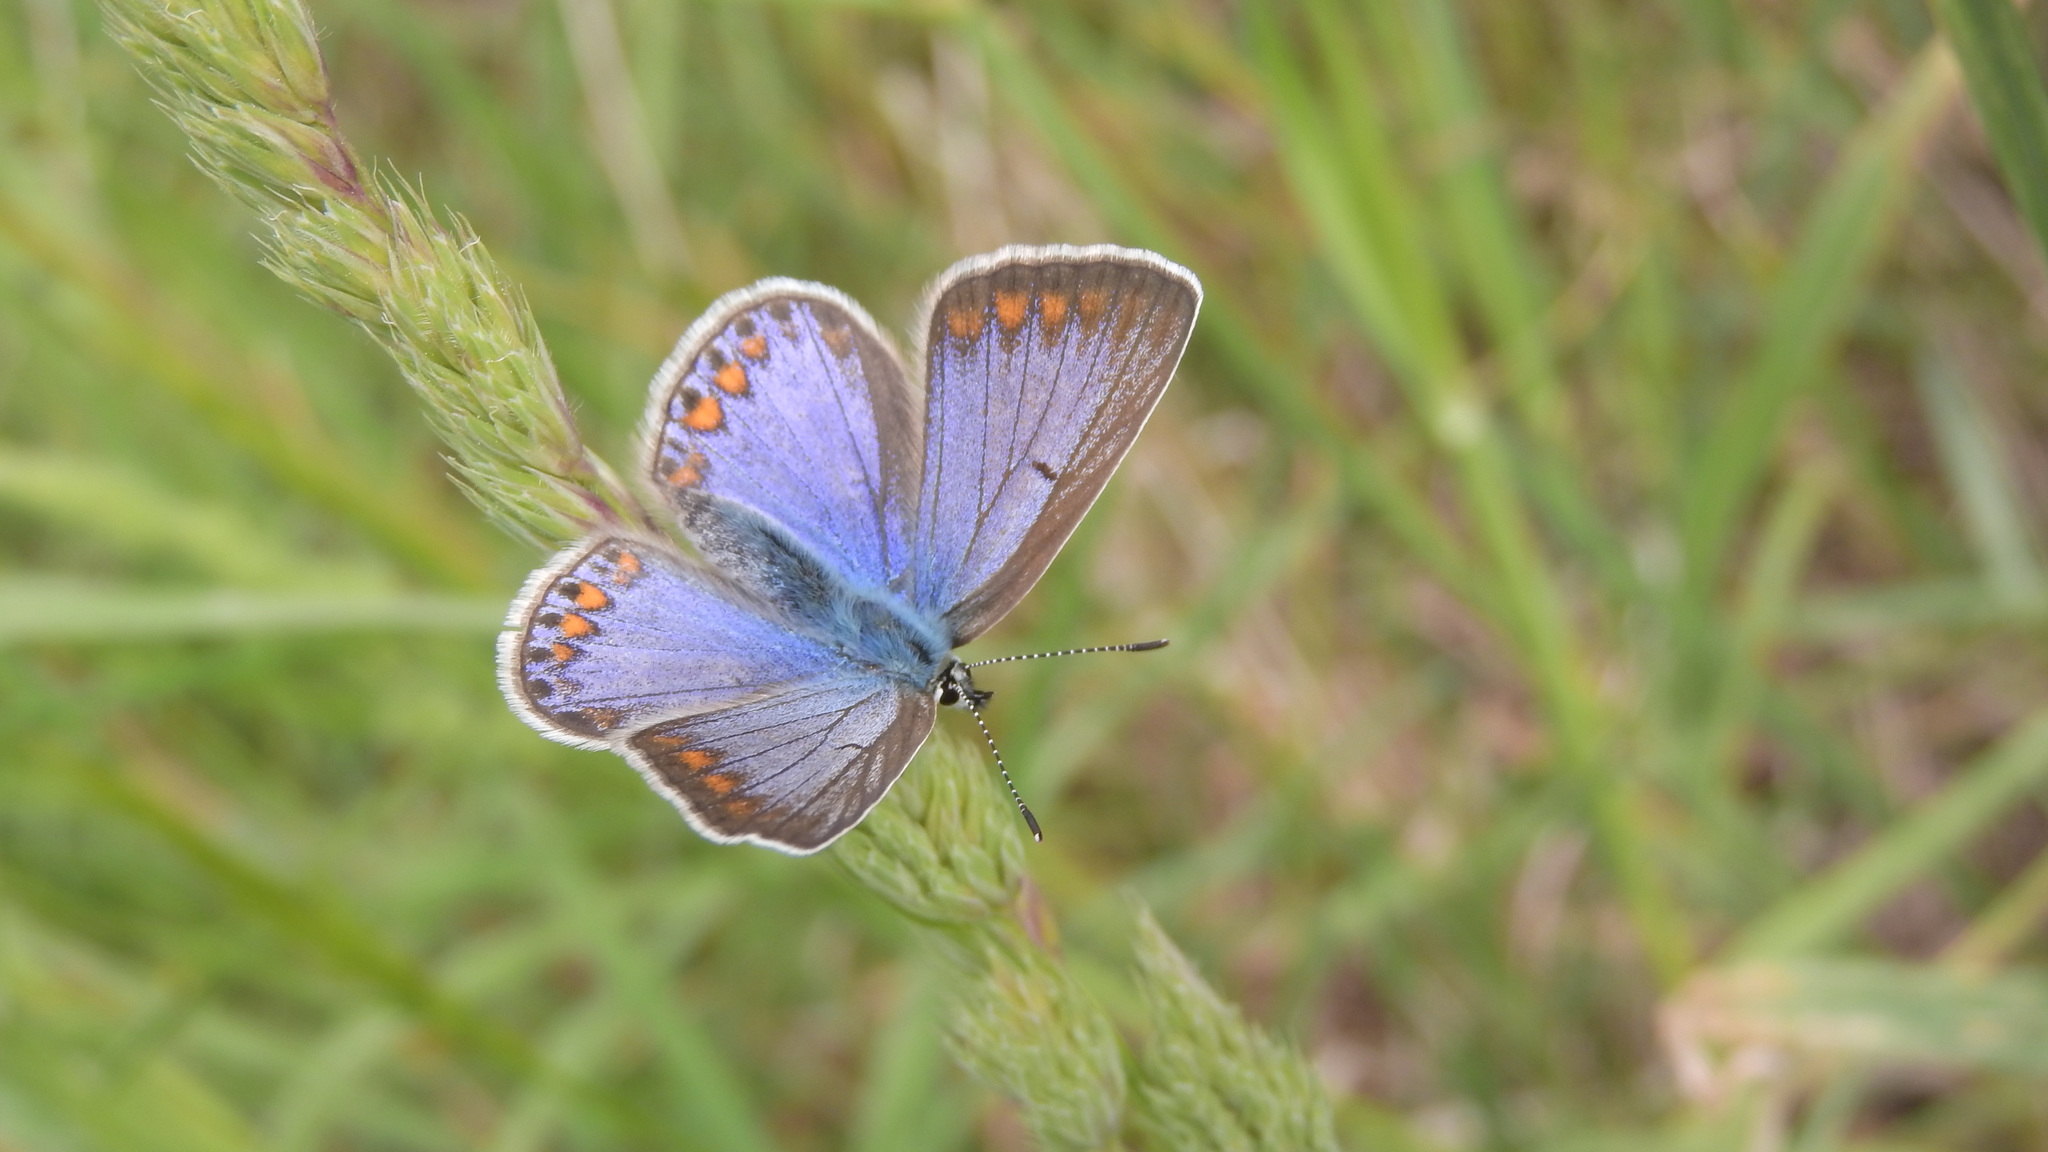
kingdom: Animalia
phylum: Arthropoda
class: Insecta
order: Lepidoptera
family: Lycaenidae
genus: Polyommatus
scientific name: Polyommatus icarus
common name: Common blue
